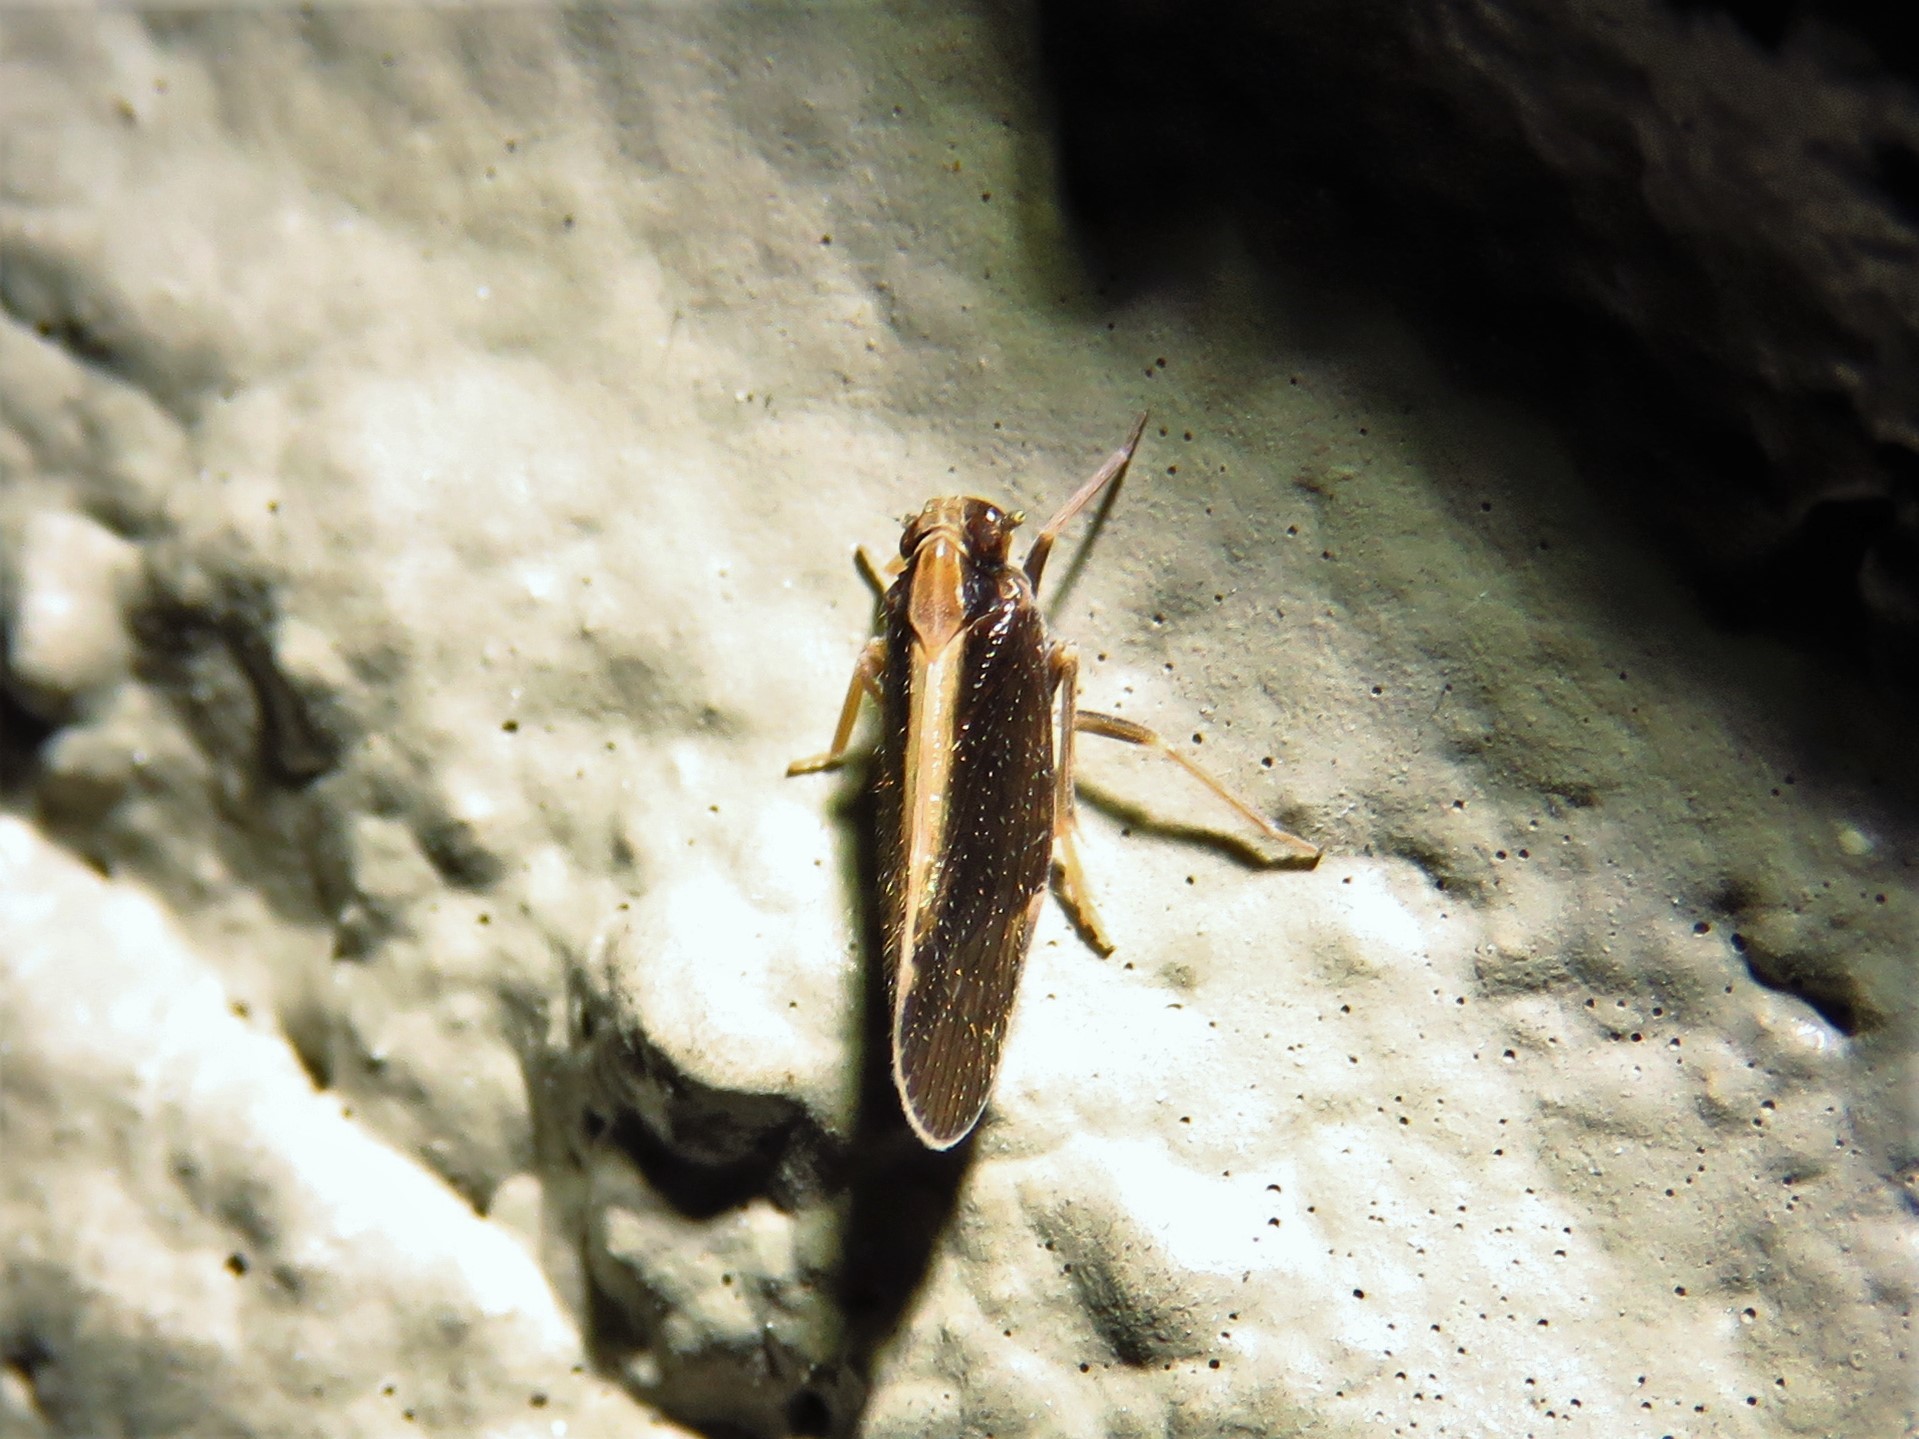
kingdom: Animalia
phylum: Arthropoda
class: Insecta
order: Hemiptera
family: Cixiidae
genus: Pintalia
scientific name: Pintalia delicata
